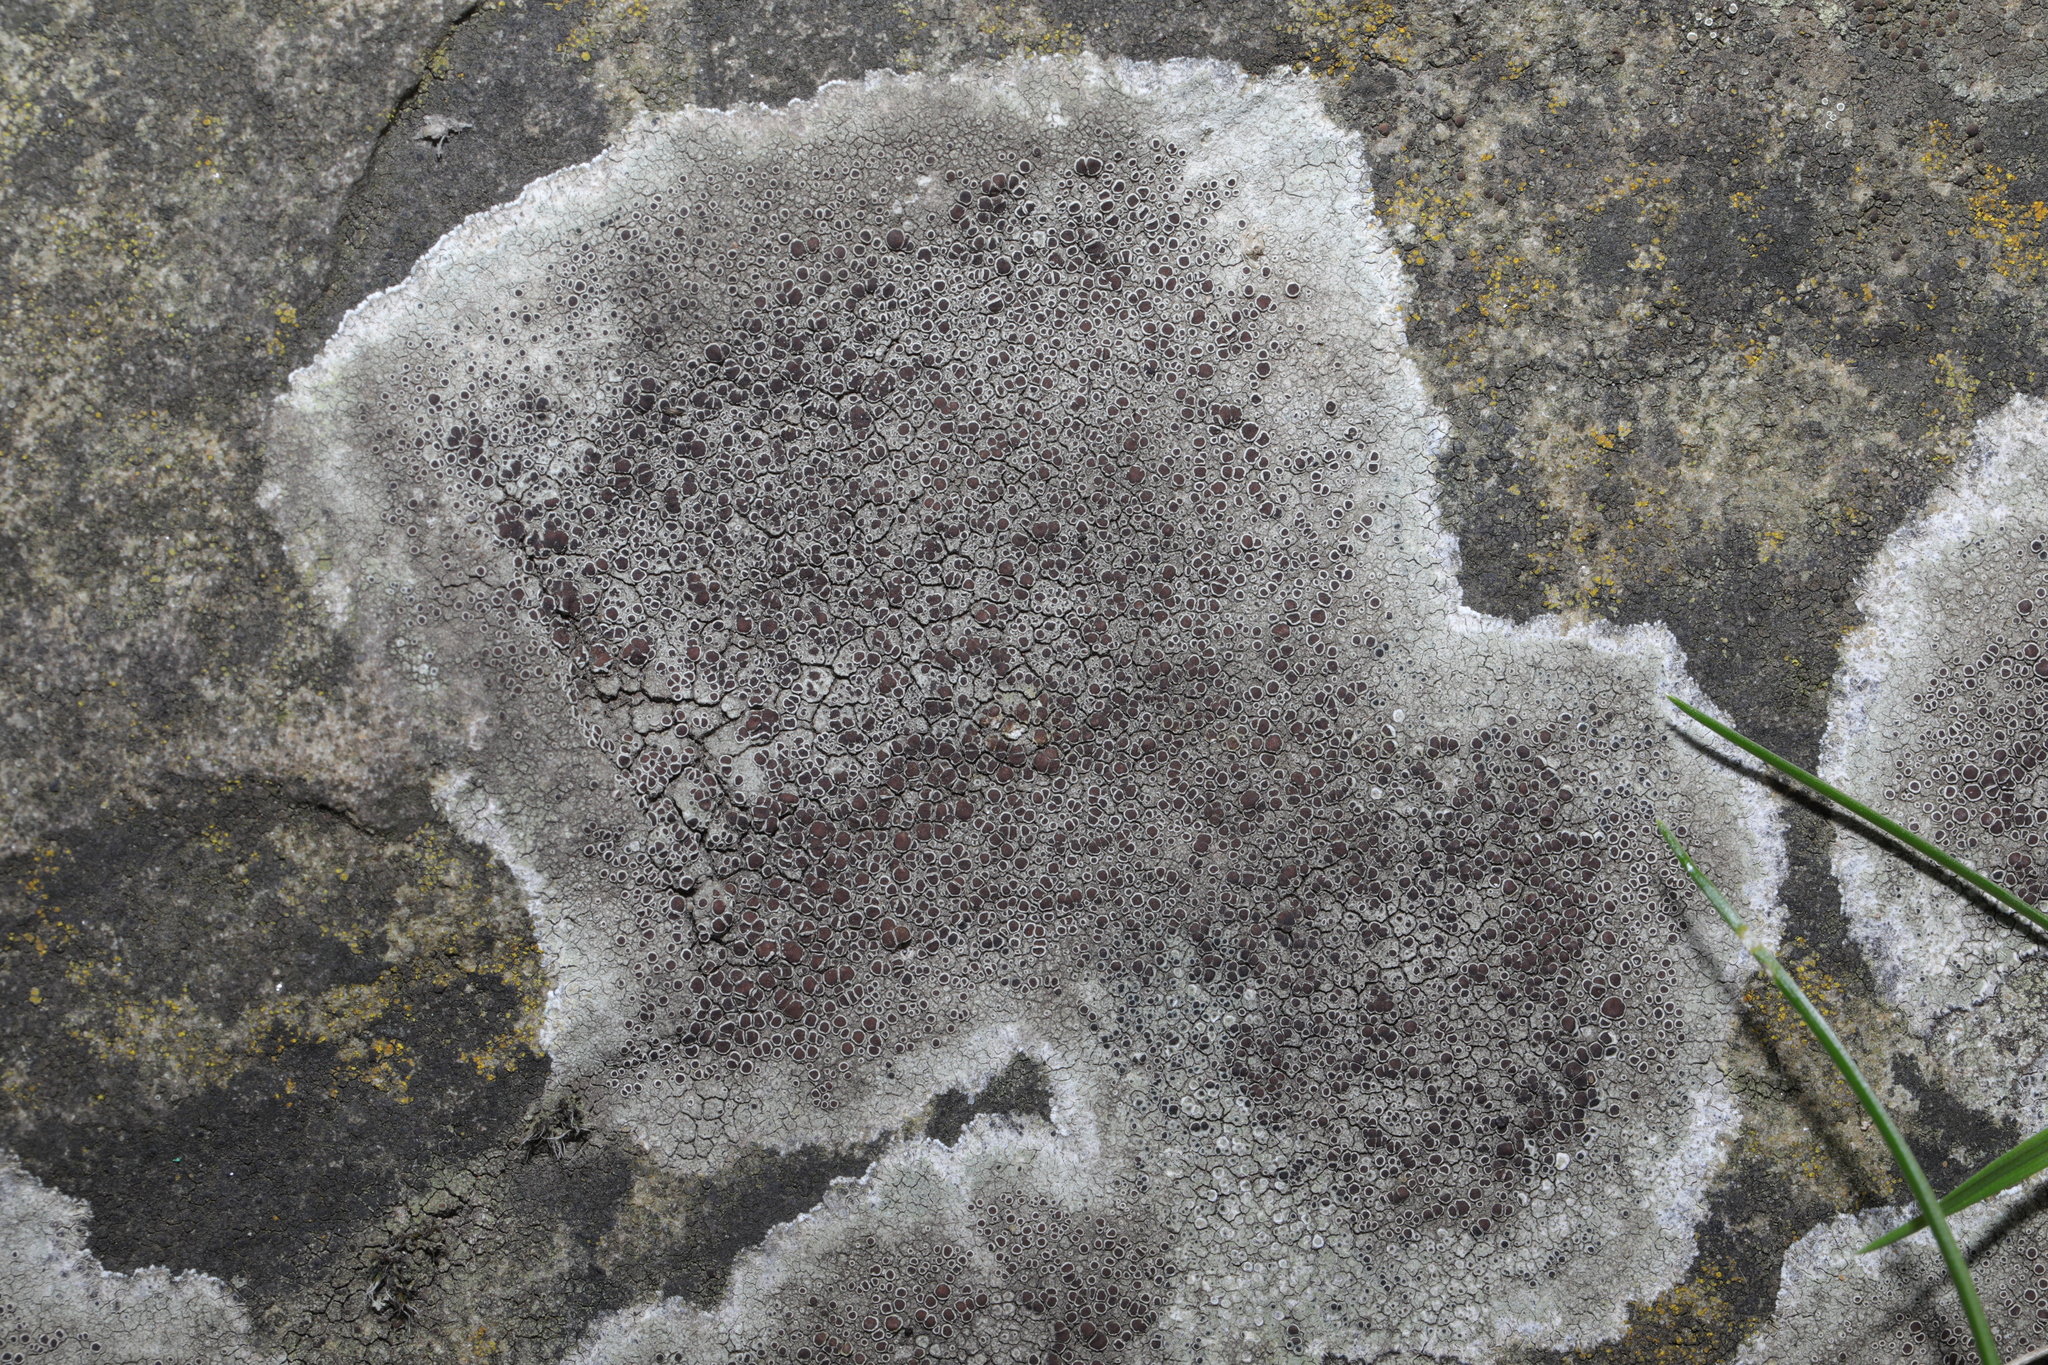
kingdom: Fungi
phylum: Ascomycota
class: Lecanoromycetes
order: Lecanorales
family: Lecanoraceae
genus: Lecanora
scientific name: Lecanora campestris
